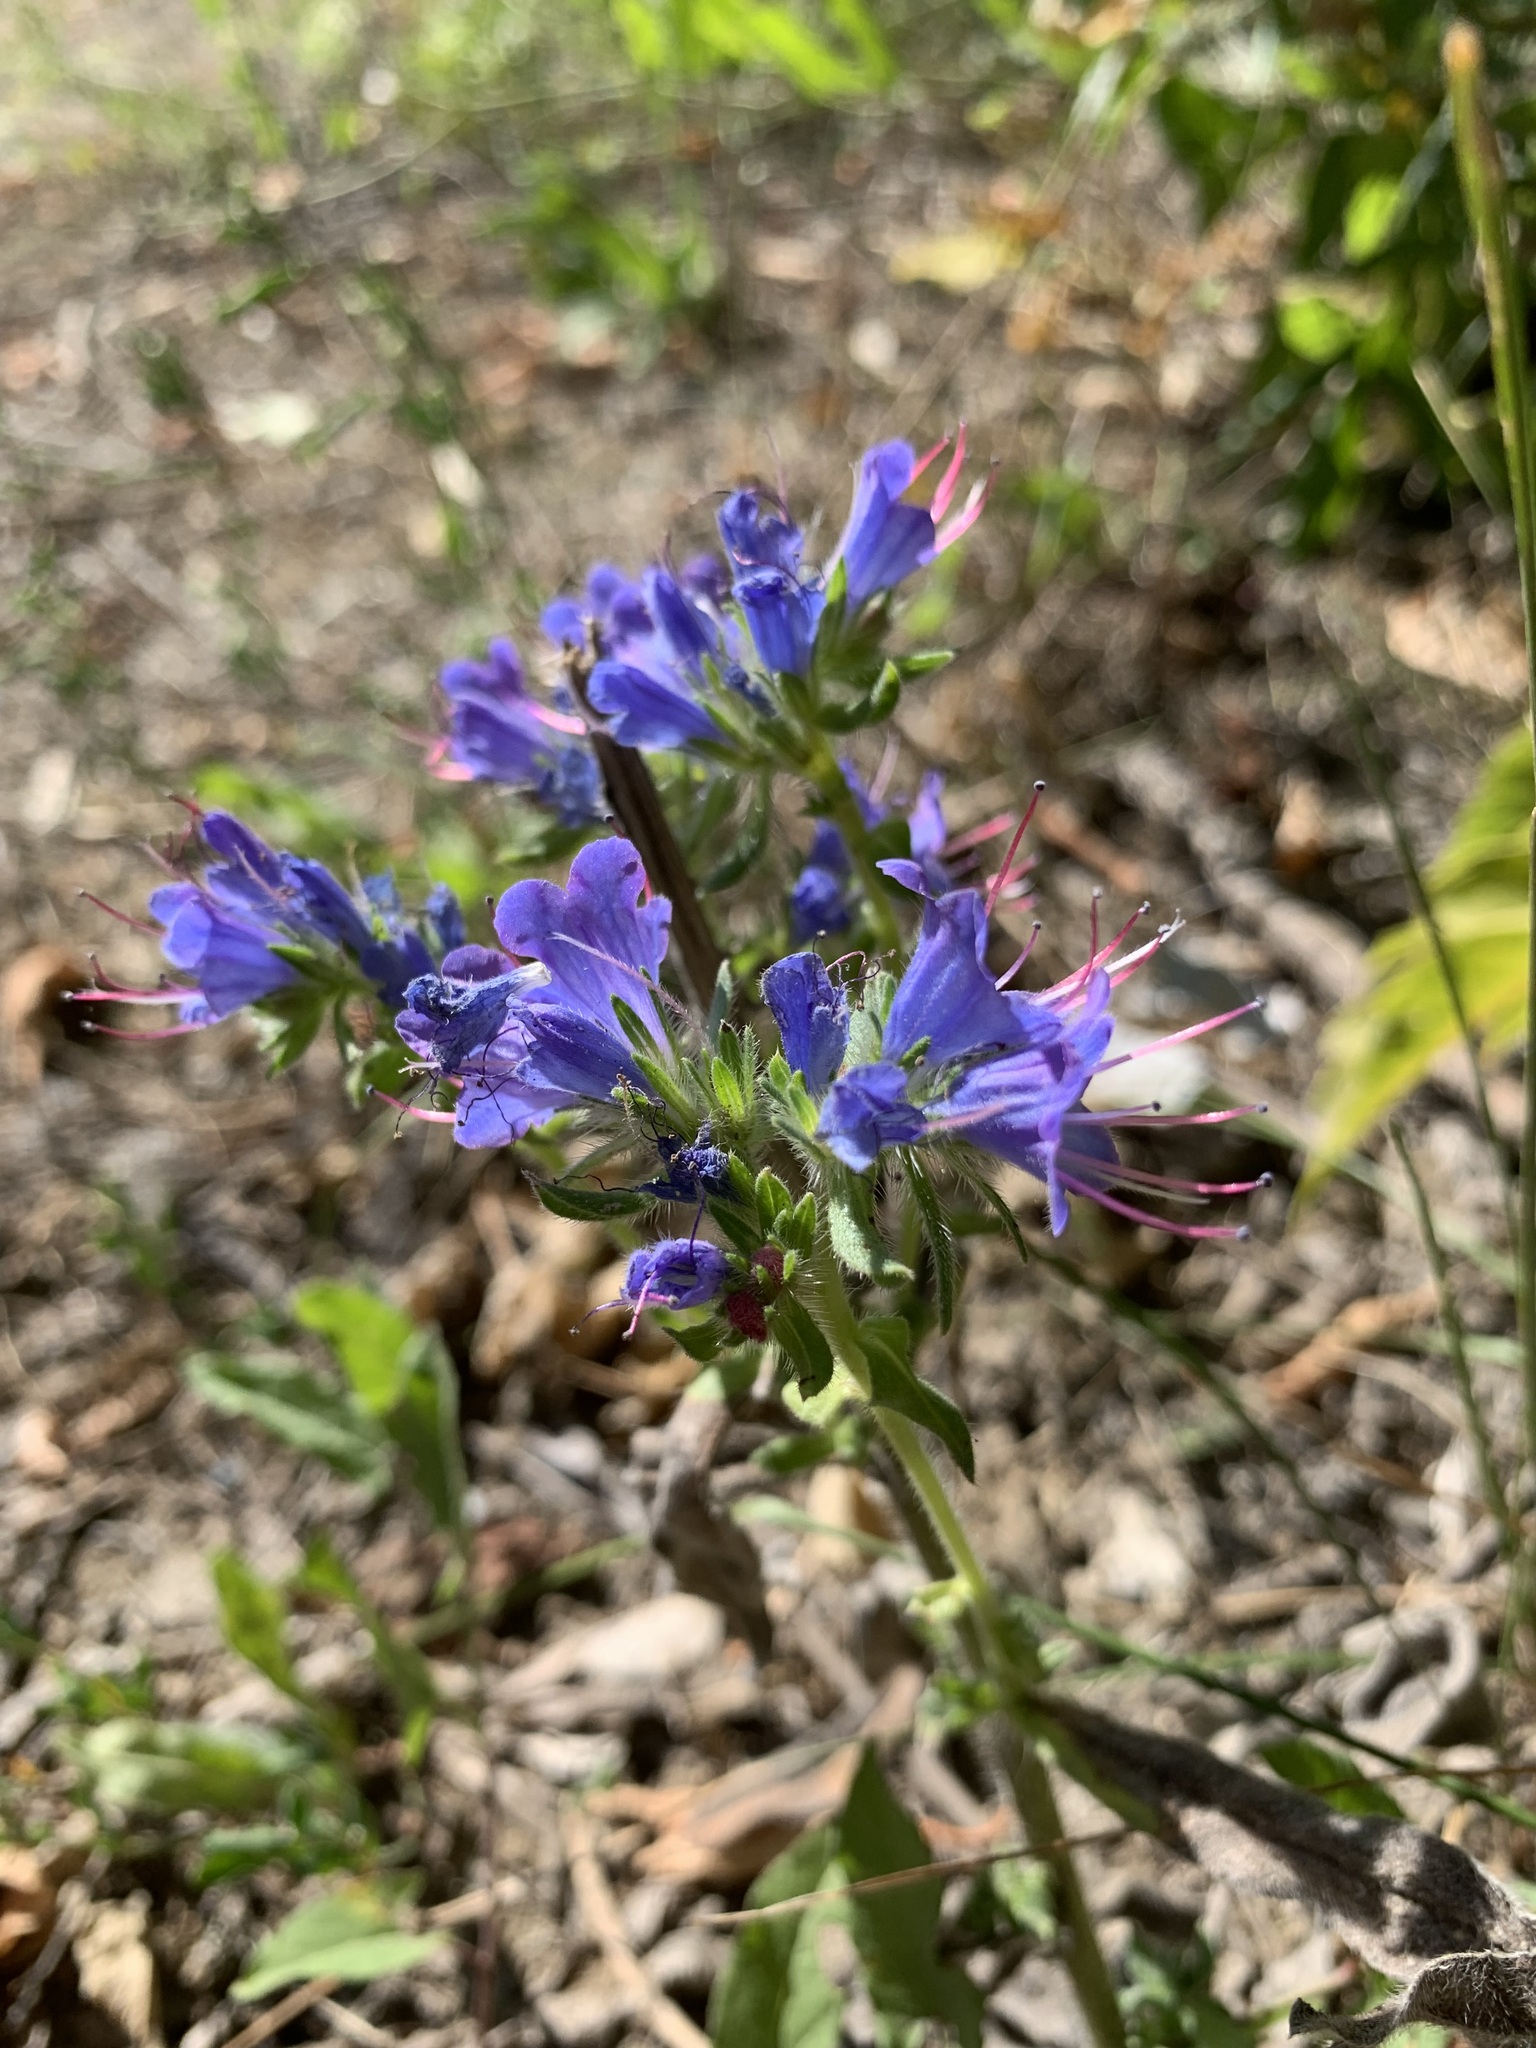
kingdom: Plantae
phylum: Tracheophyta
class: Magnoliopsida
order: Boraginales
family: Boraginaceae
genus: Echium
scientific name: Echium vulgare
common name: Common viper's bugloss
